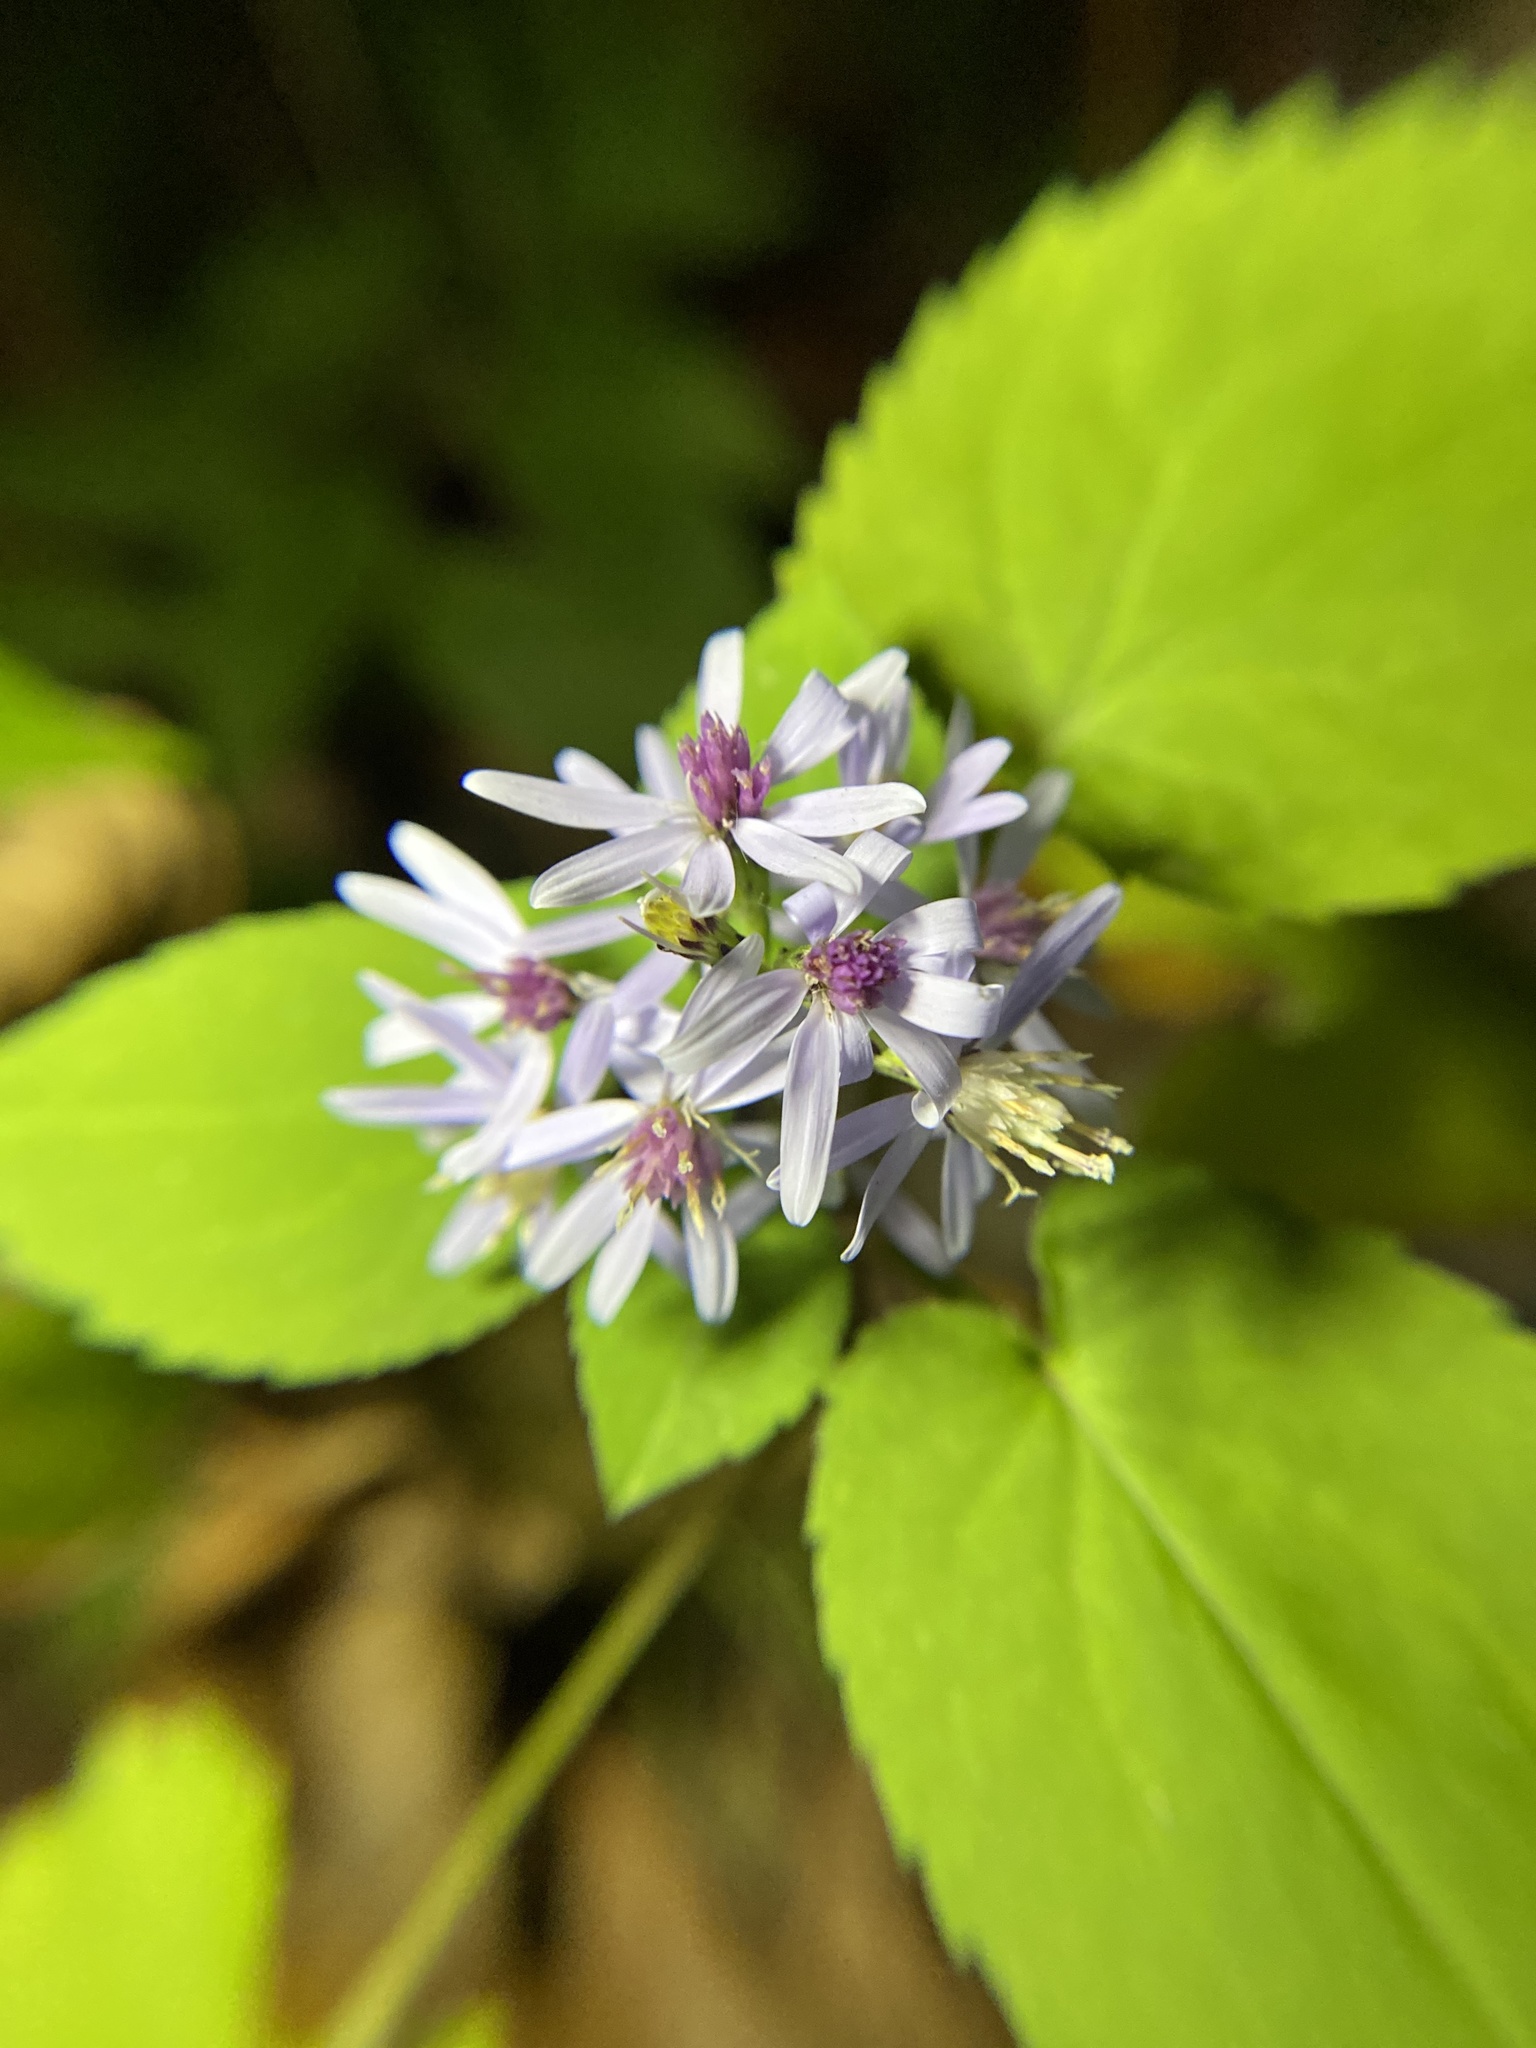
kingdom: Plantae
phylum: Tracheophyta
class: Magnoliopsida
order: Asterales
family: Asteraceae
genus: Symphyotrichum
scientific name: Symphyotrichum cordifolium
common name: Beeweed
